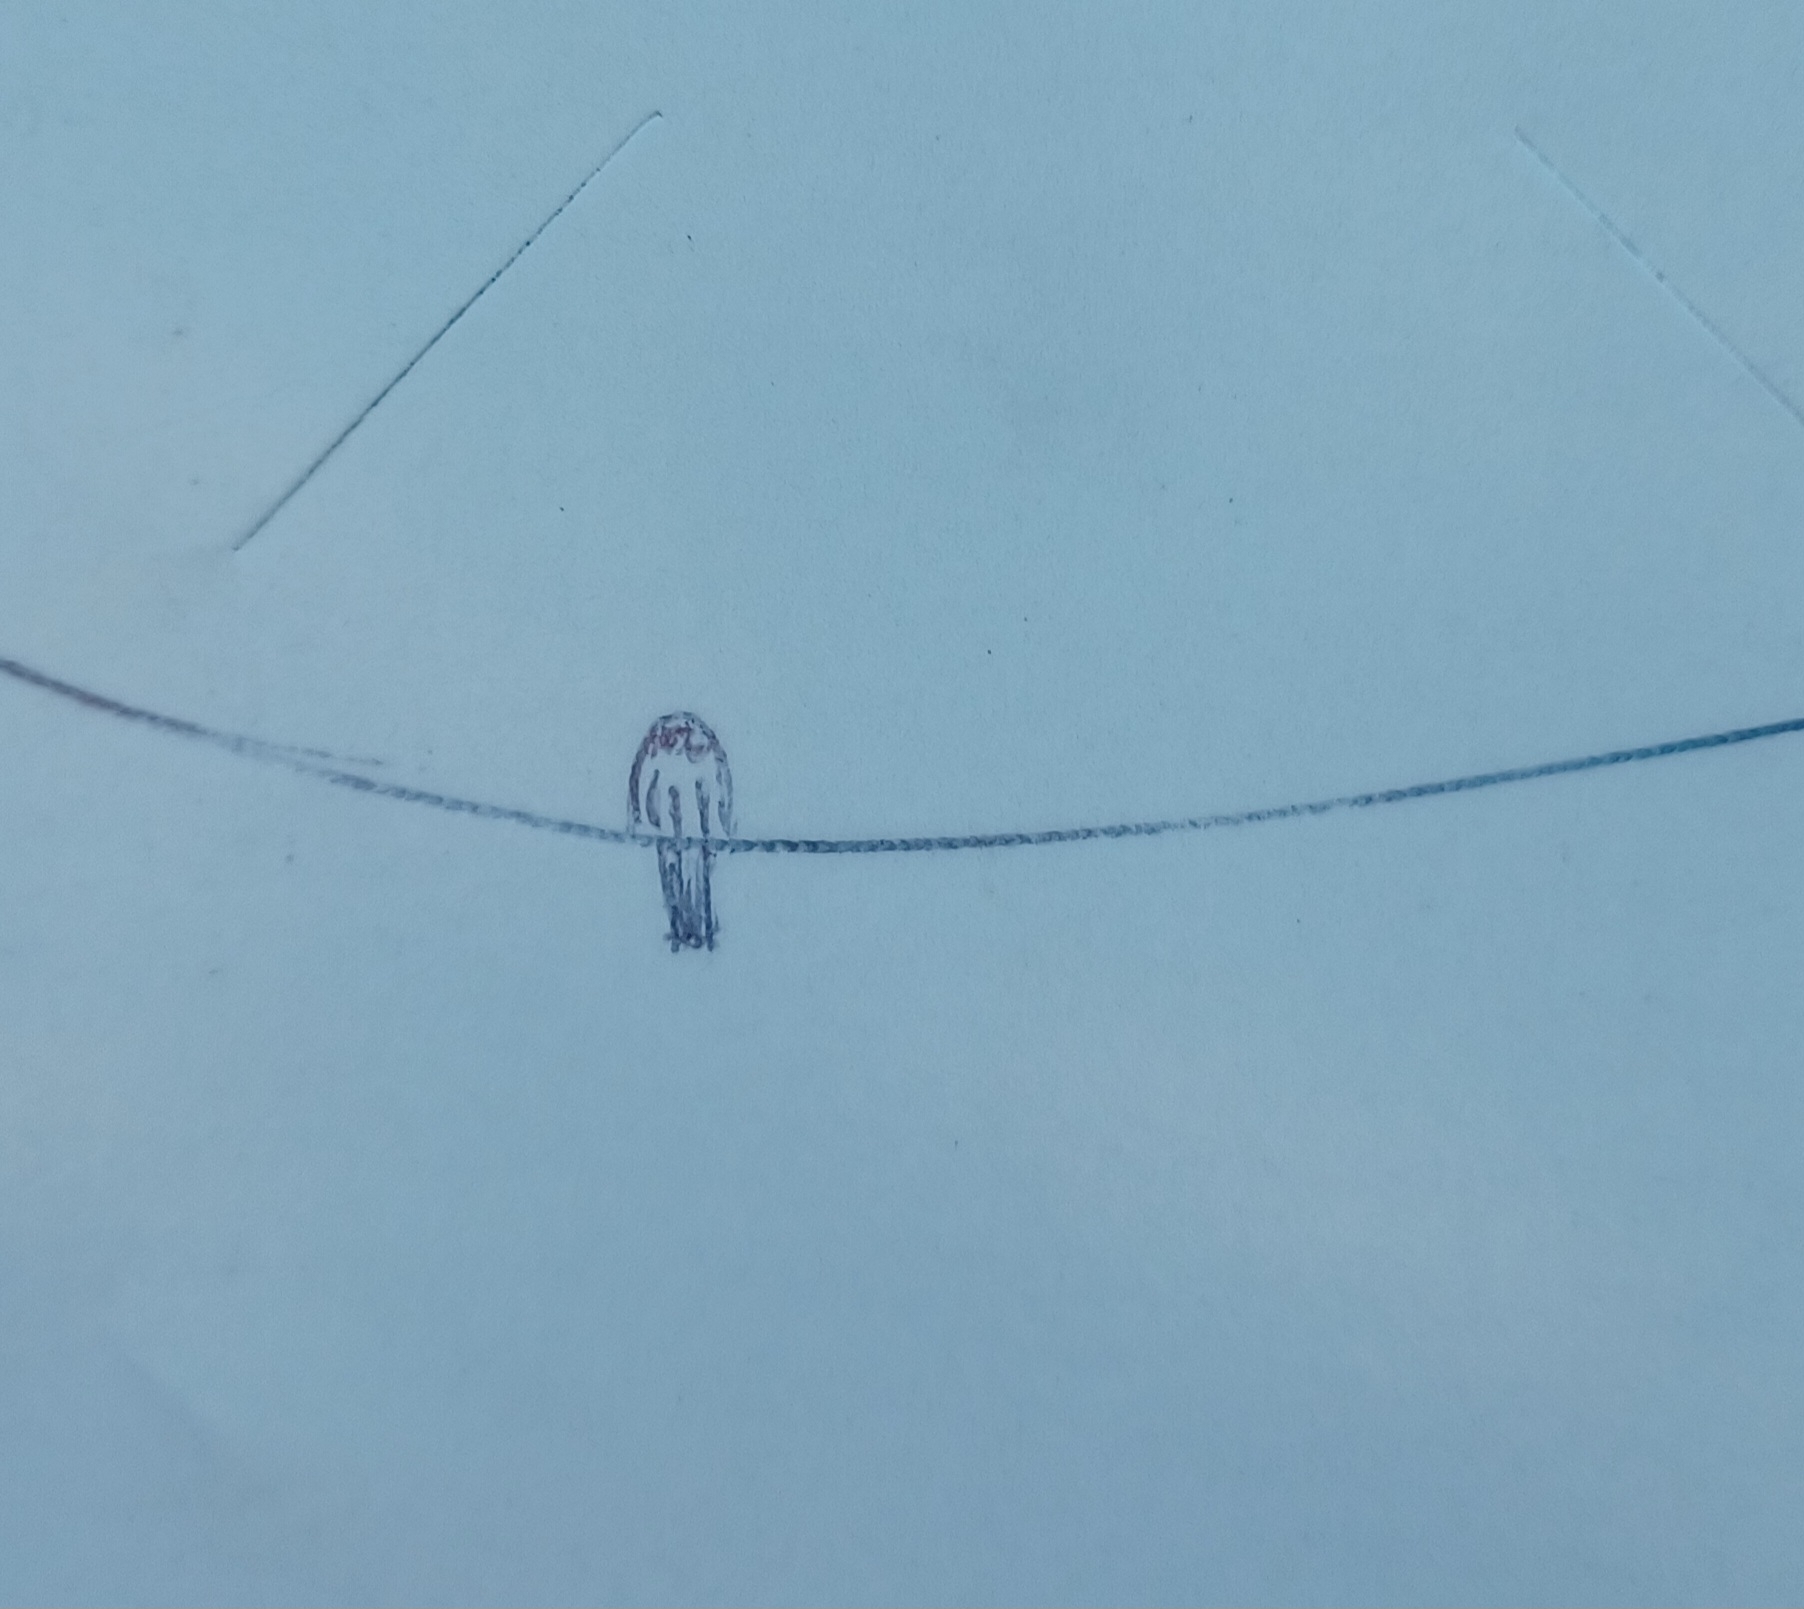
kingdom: Animalia
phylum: Chordata
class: Aves
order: Falconiformes
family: Falconidae
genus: Falco
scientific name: Falco sparverius
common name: American kestrel
